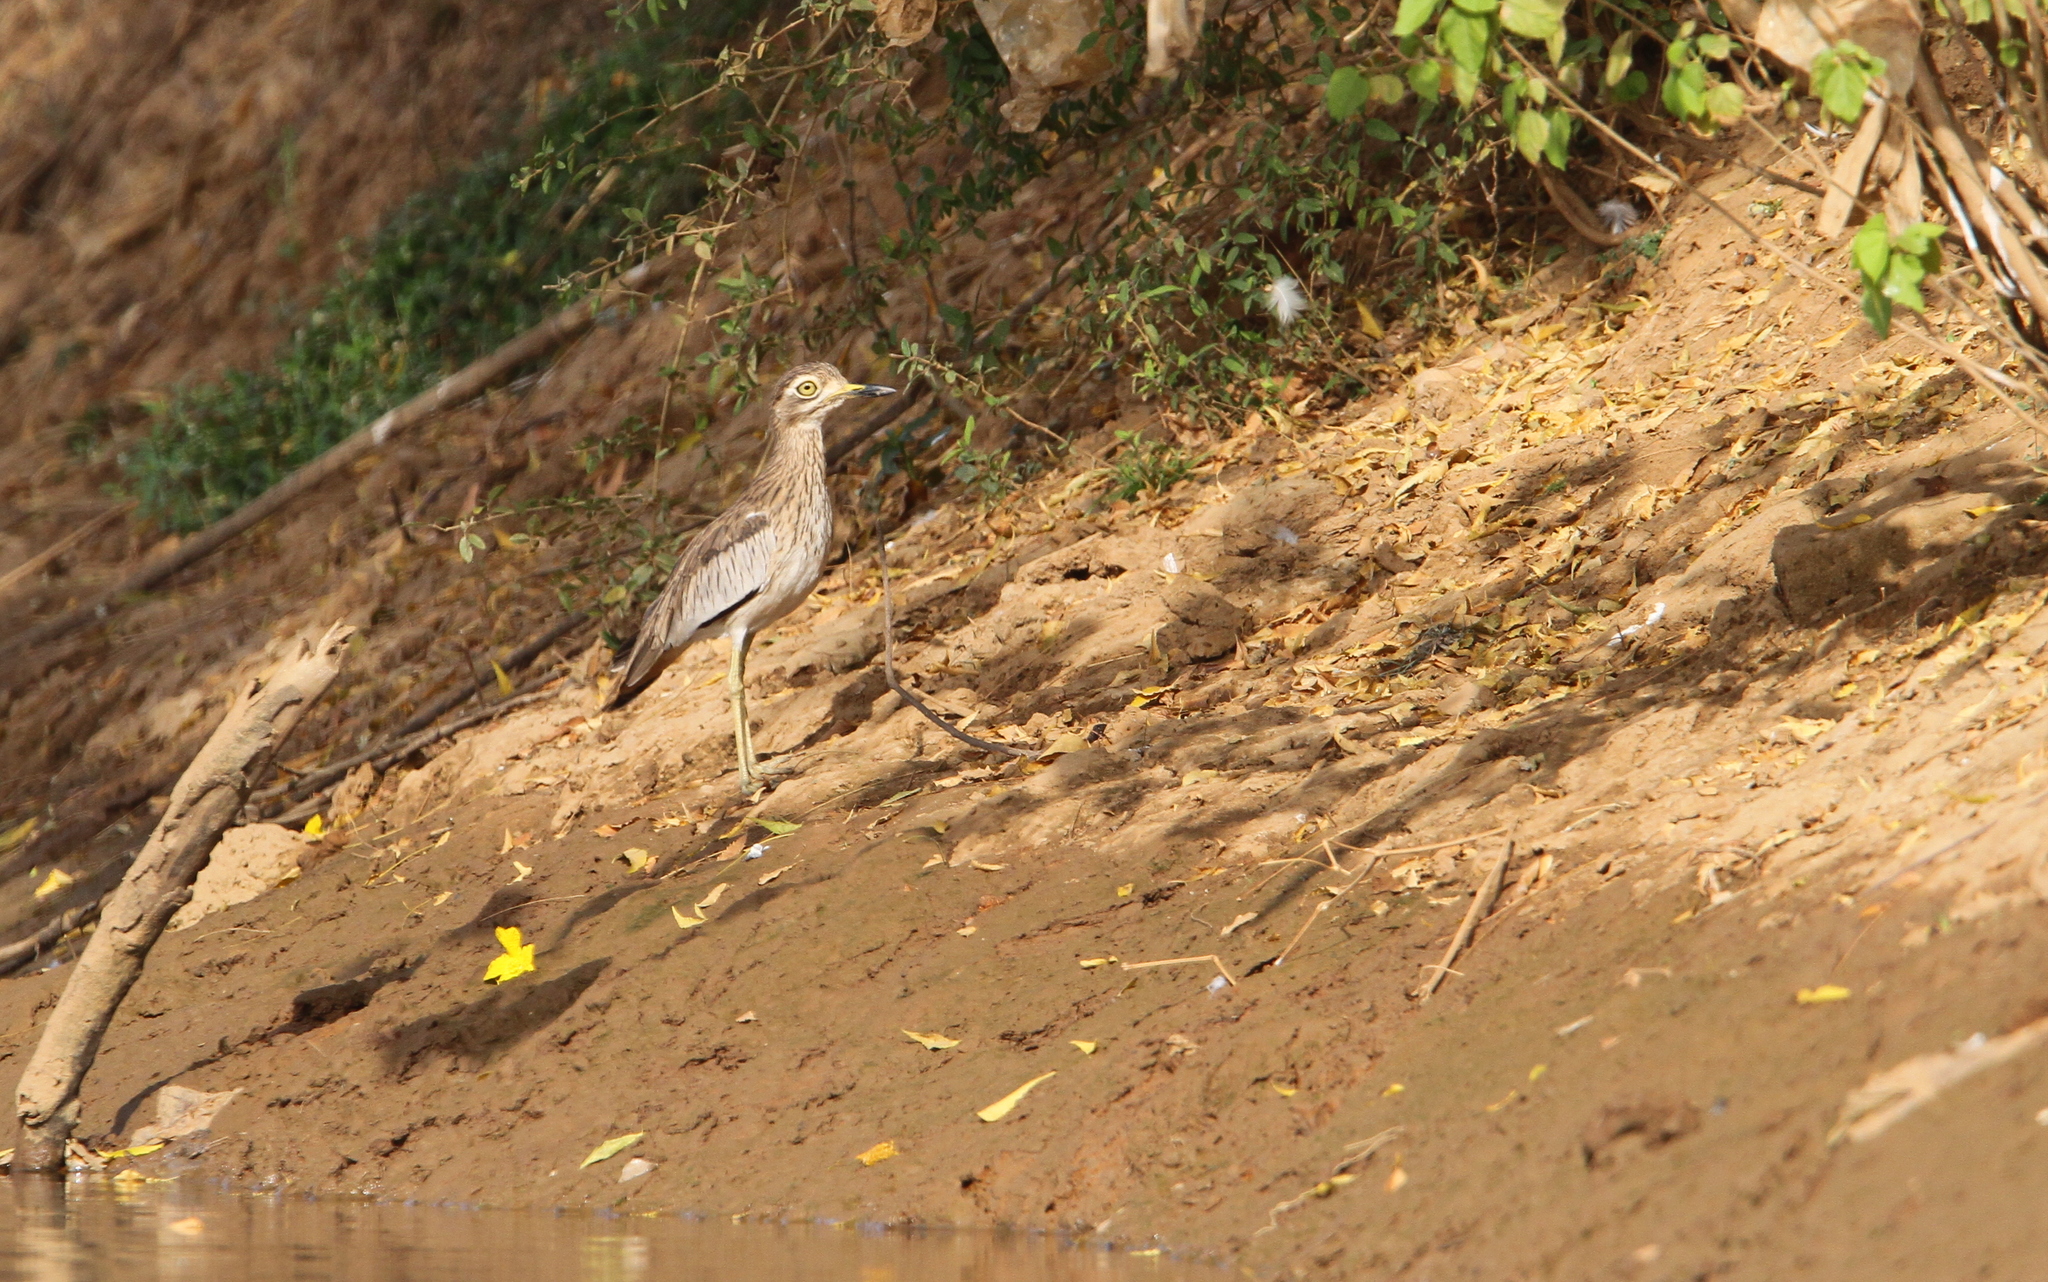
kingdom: Animalia
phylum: Chordata
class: Aves
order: Charadriiformes
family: Burhinidae
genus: Burhinus
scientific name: Burhinus senegalensis
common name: Senegal thick-knee
